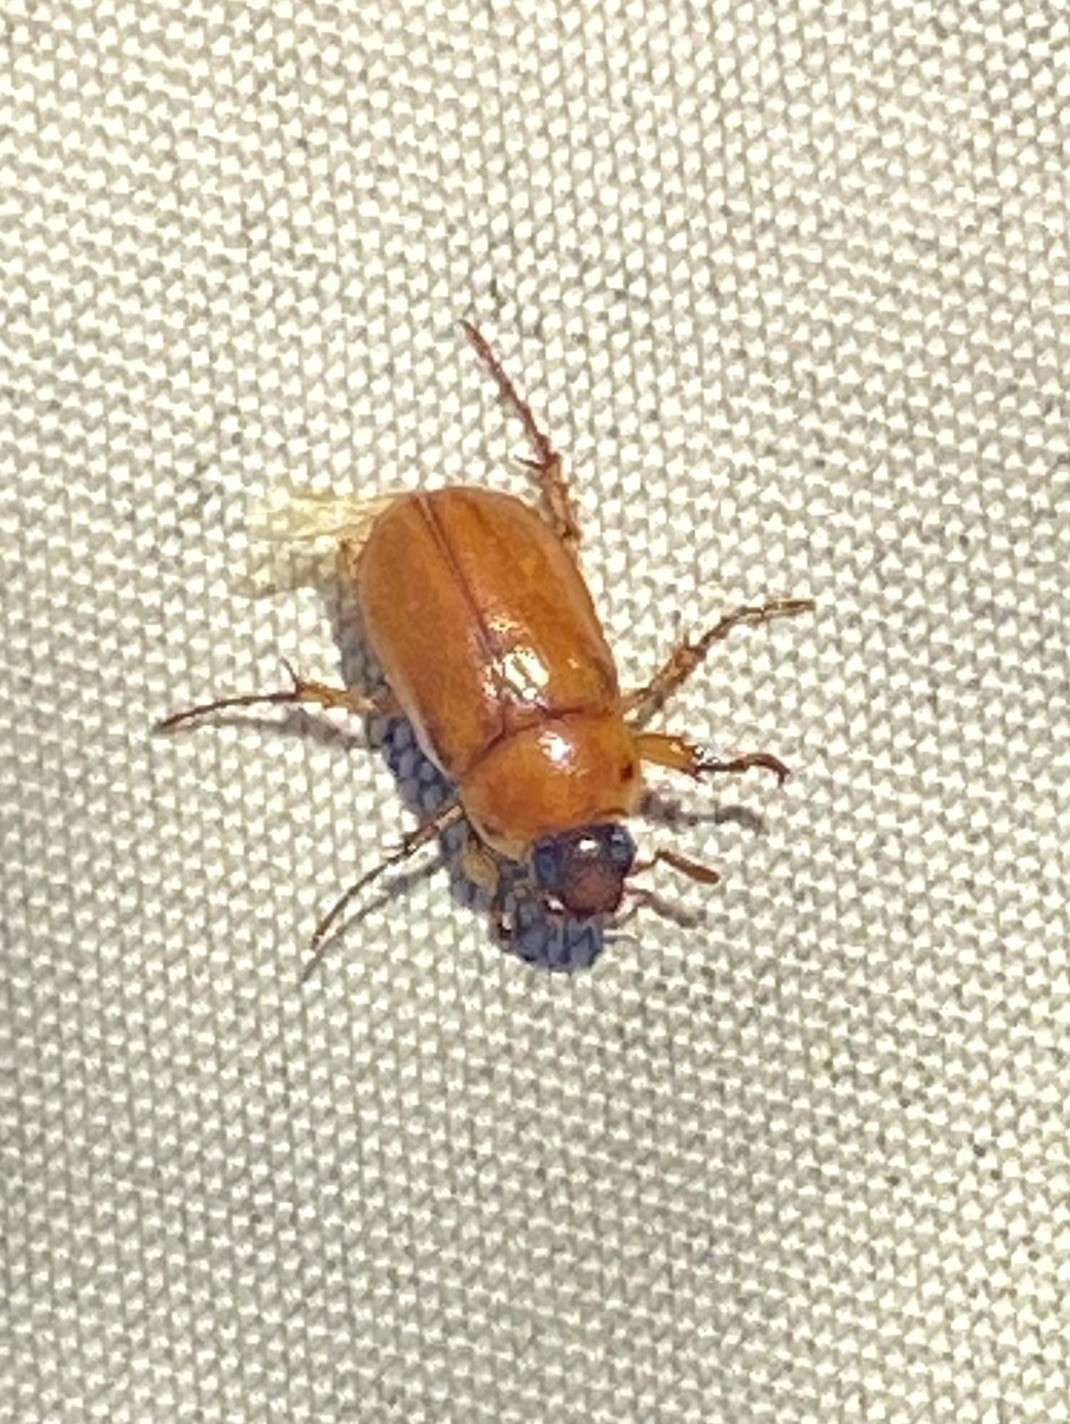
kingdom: Animalia
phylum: Arthropoda
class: Insecta
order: Coleoptera
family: Scarabaeidae
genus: Cyclocephala
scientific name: Cyclocephala lurida
